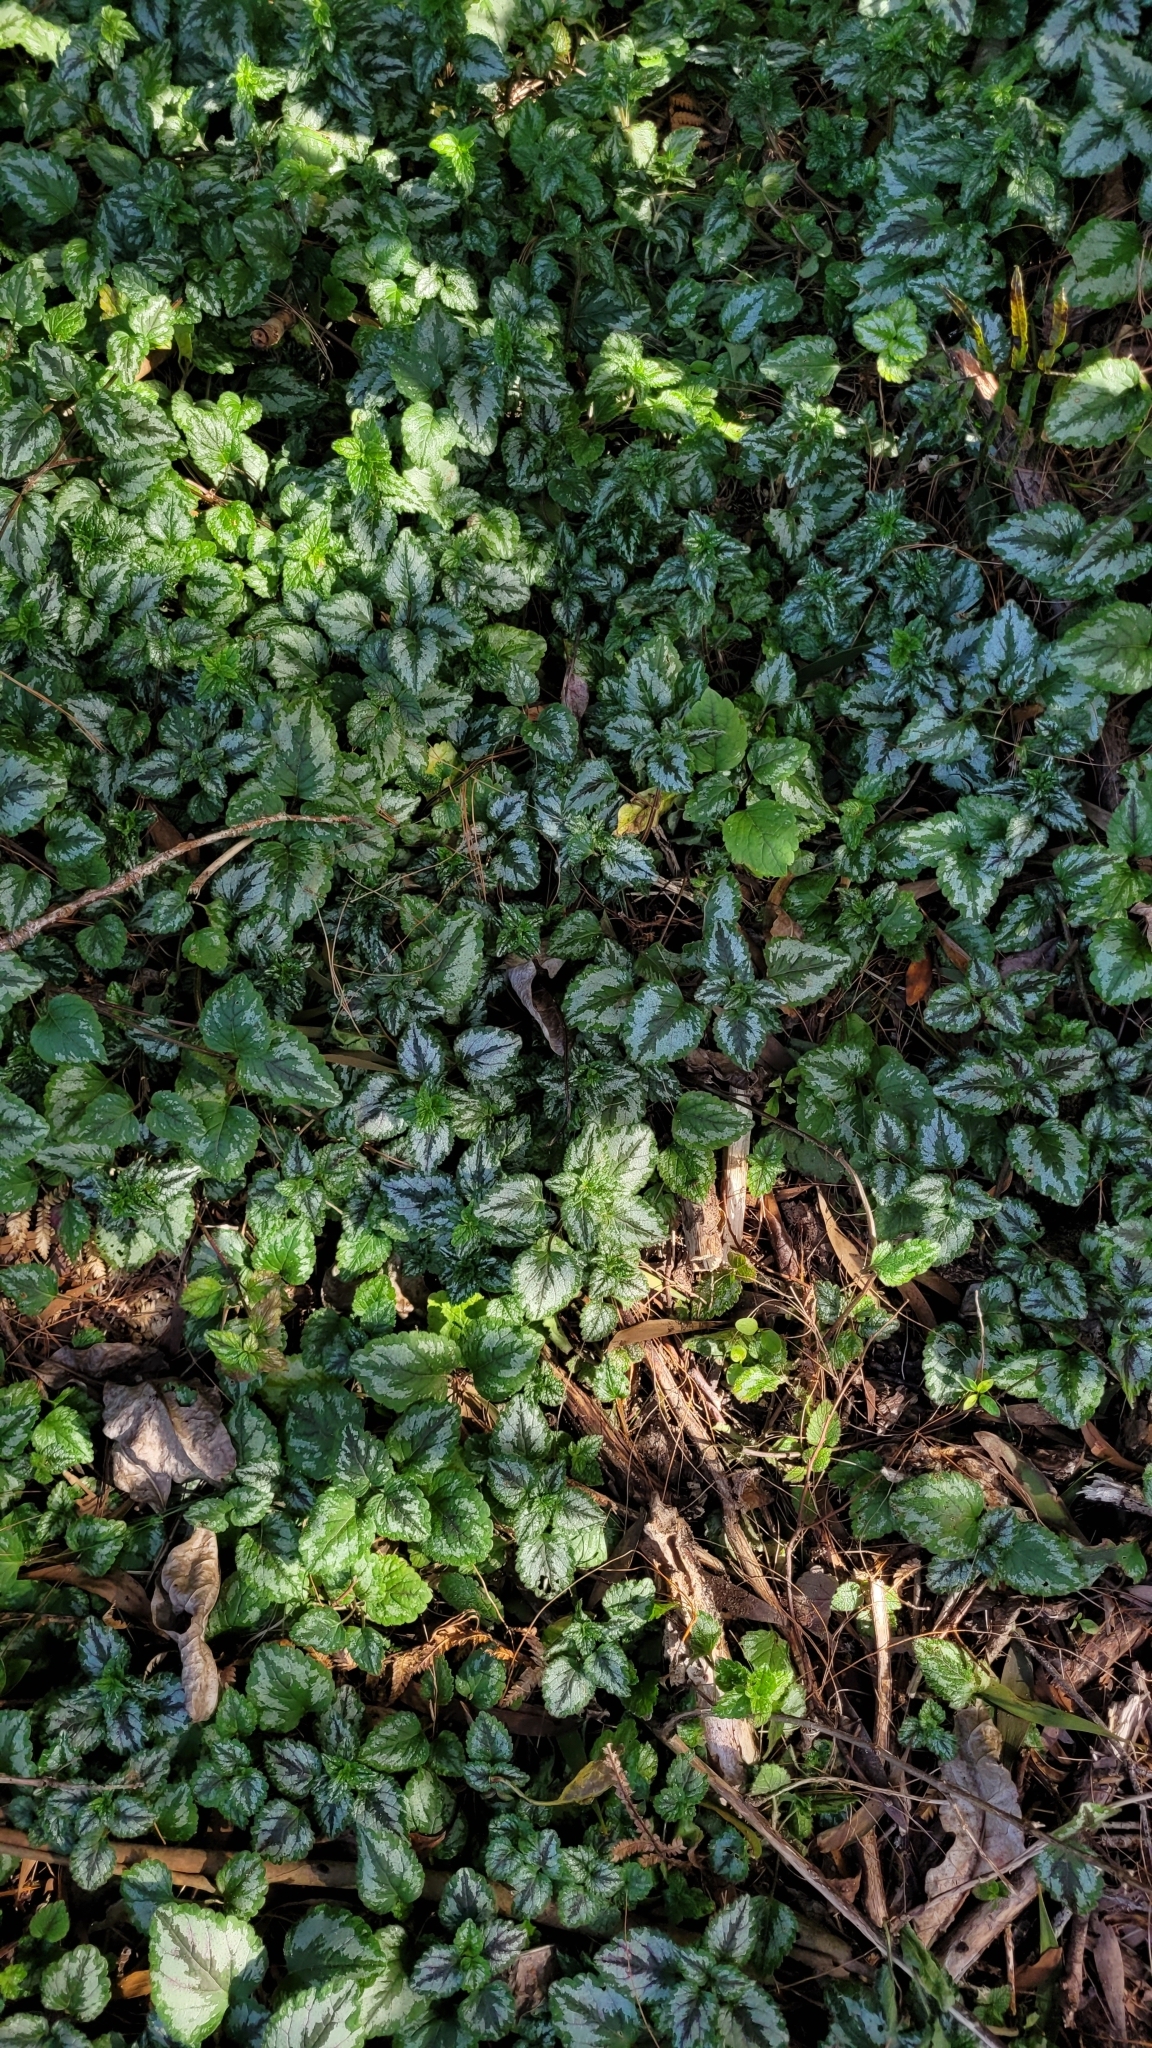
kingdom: Plantae
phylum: Tracheophyta
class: Magnoliopsida
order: Lamiales
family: Lamiaceae
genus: Lamium
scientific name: Lamium galeobdolon
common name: Yellow archangel
